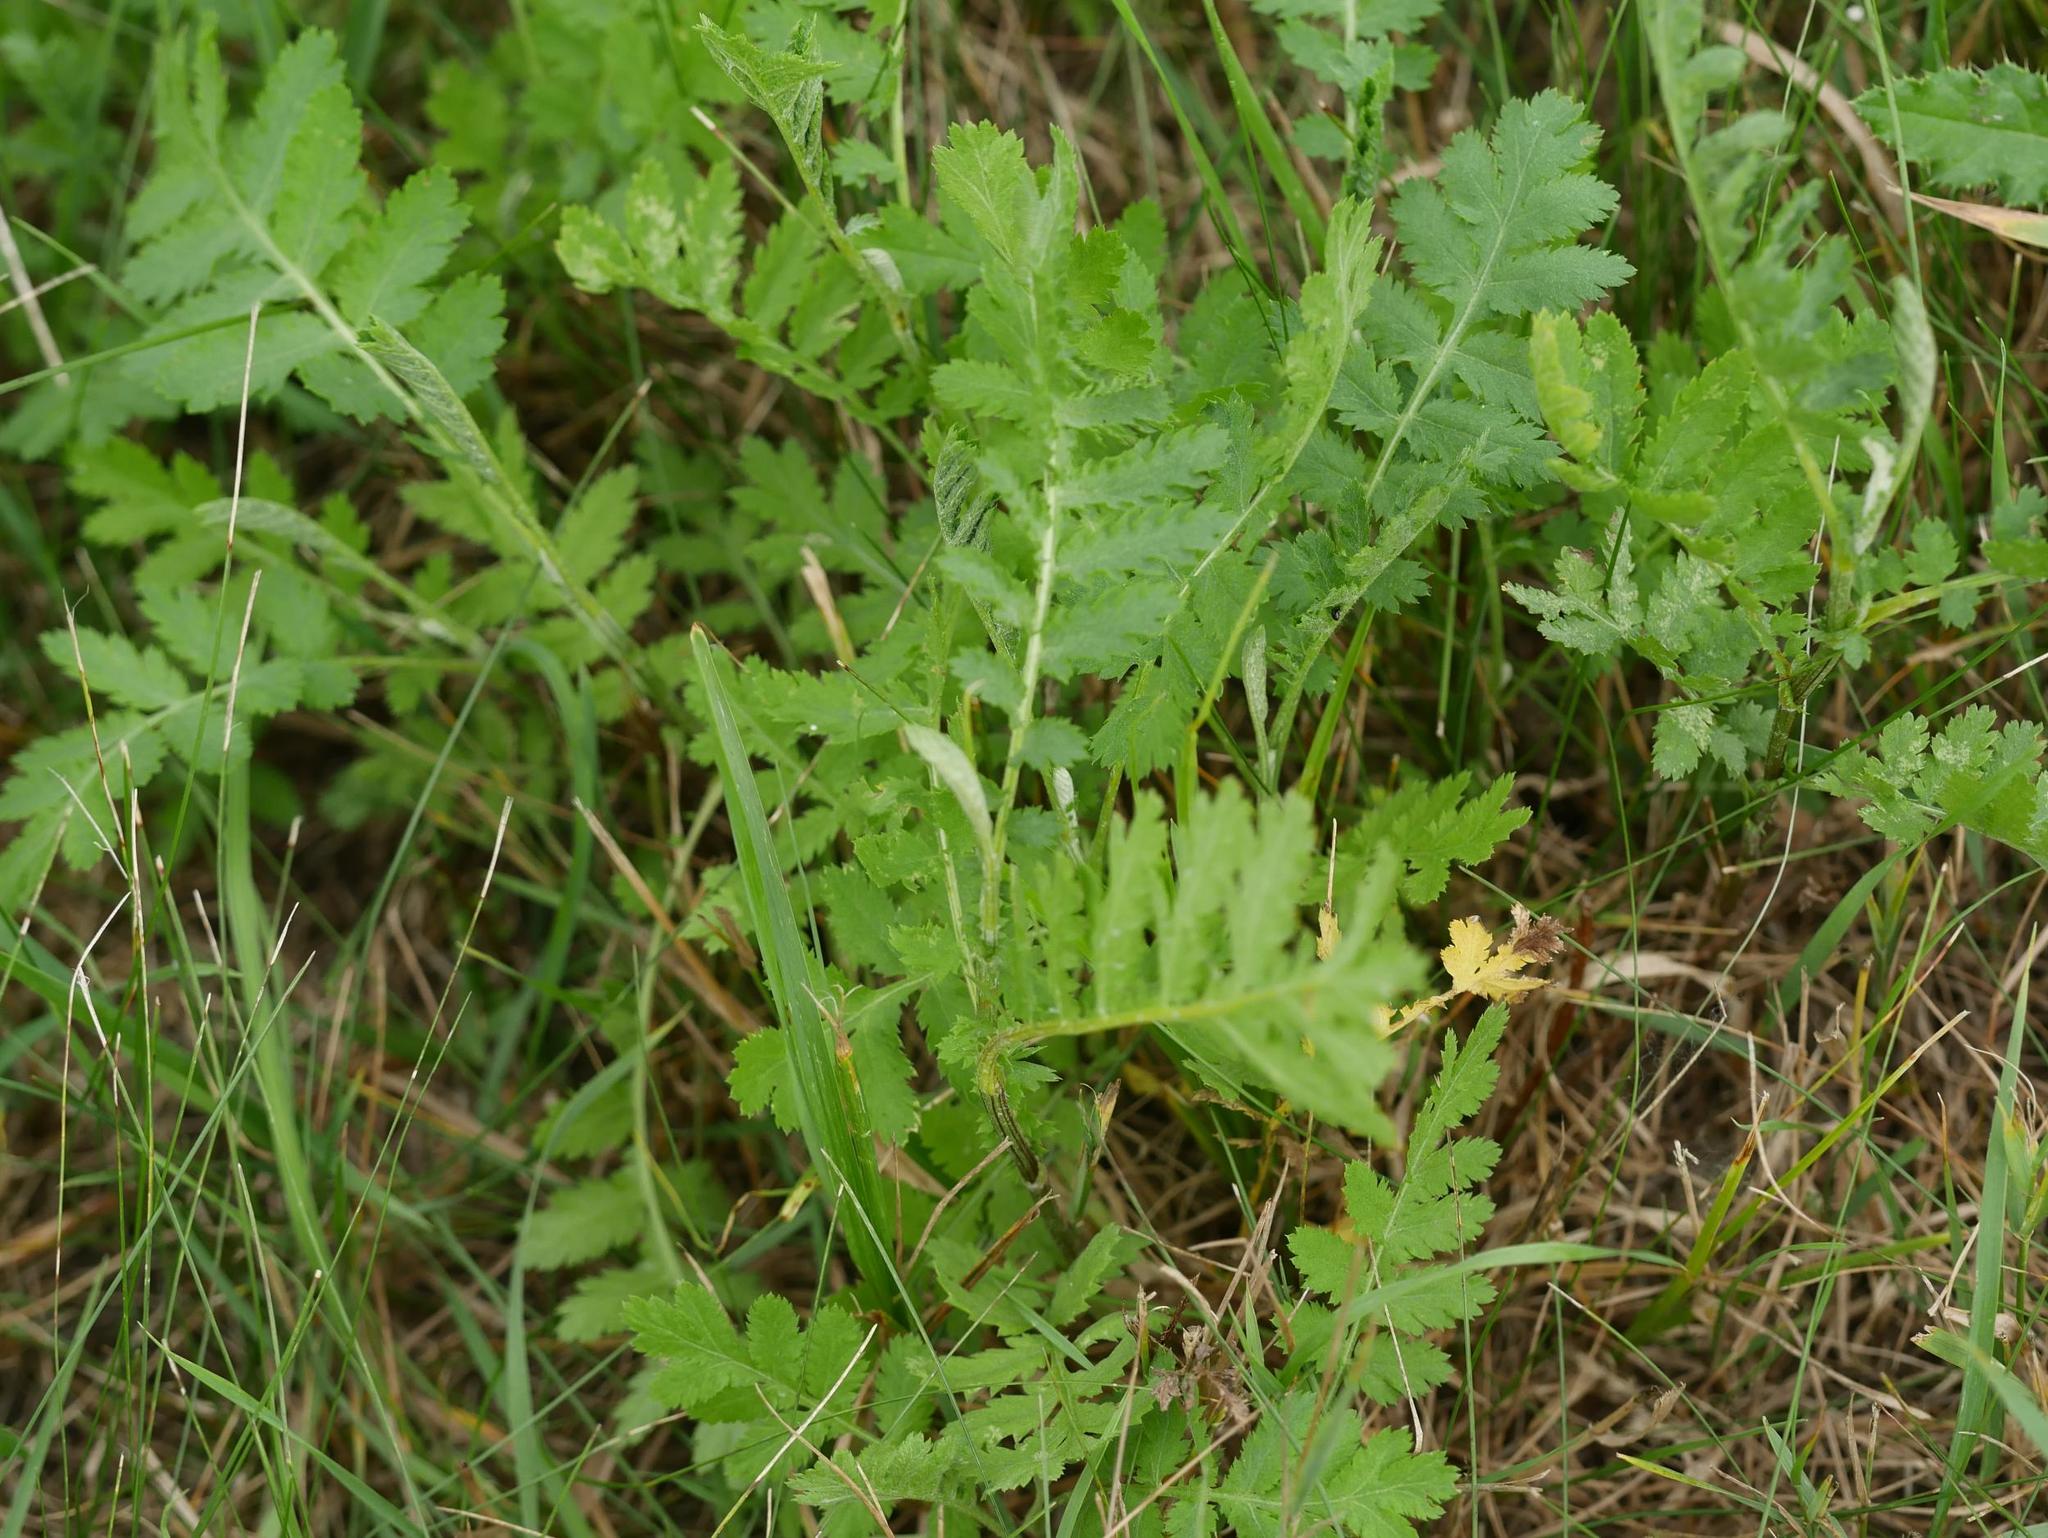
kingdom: Plantae
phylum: Tracheophyta
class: Magnoliopsida
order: Asterales
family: Asteraceae
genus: Tanacetum
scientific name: Tanacetum vulgare
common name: Common tansy
